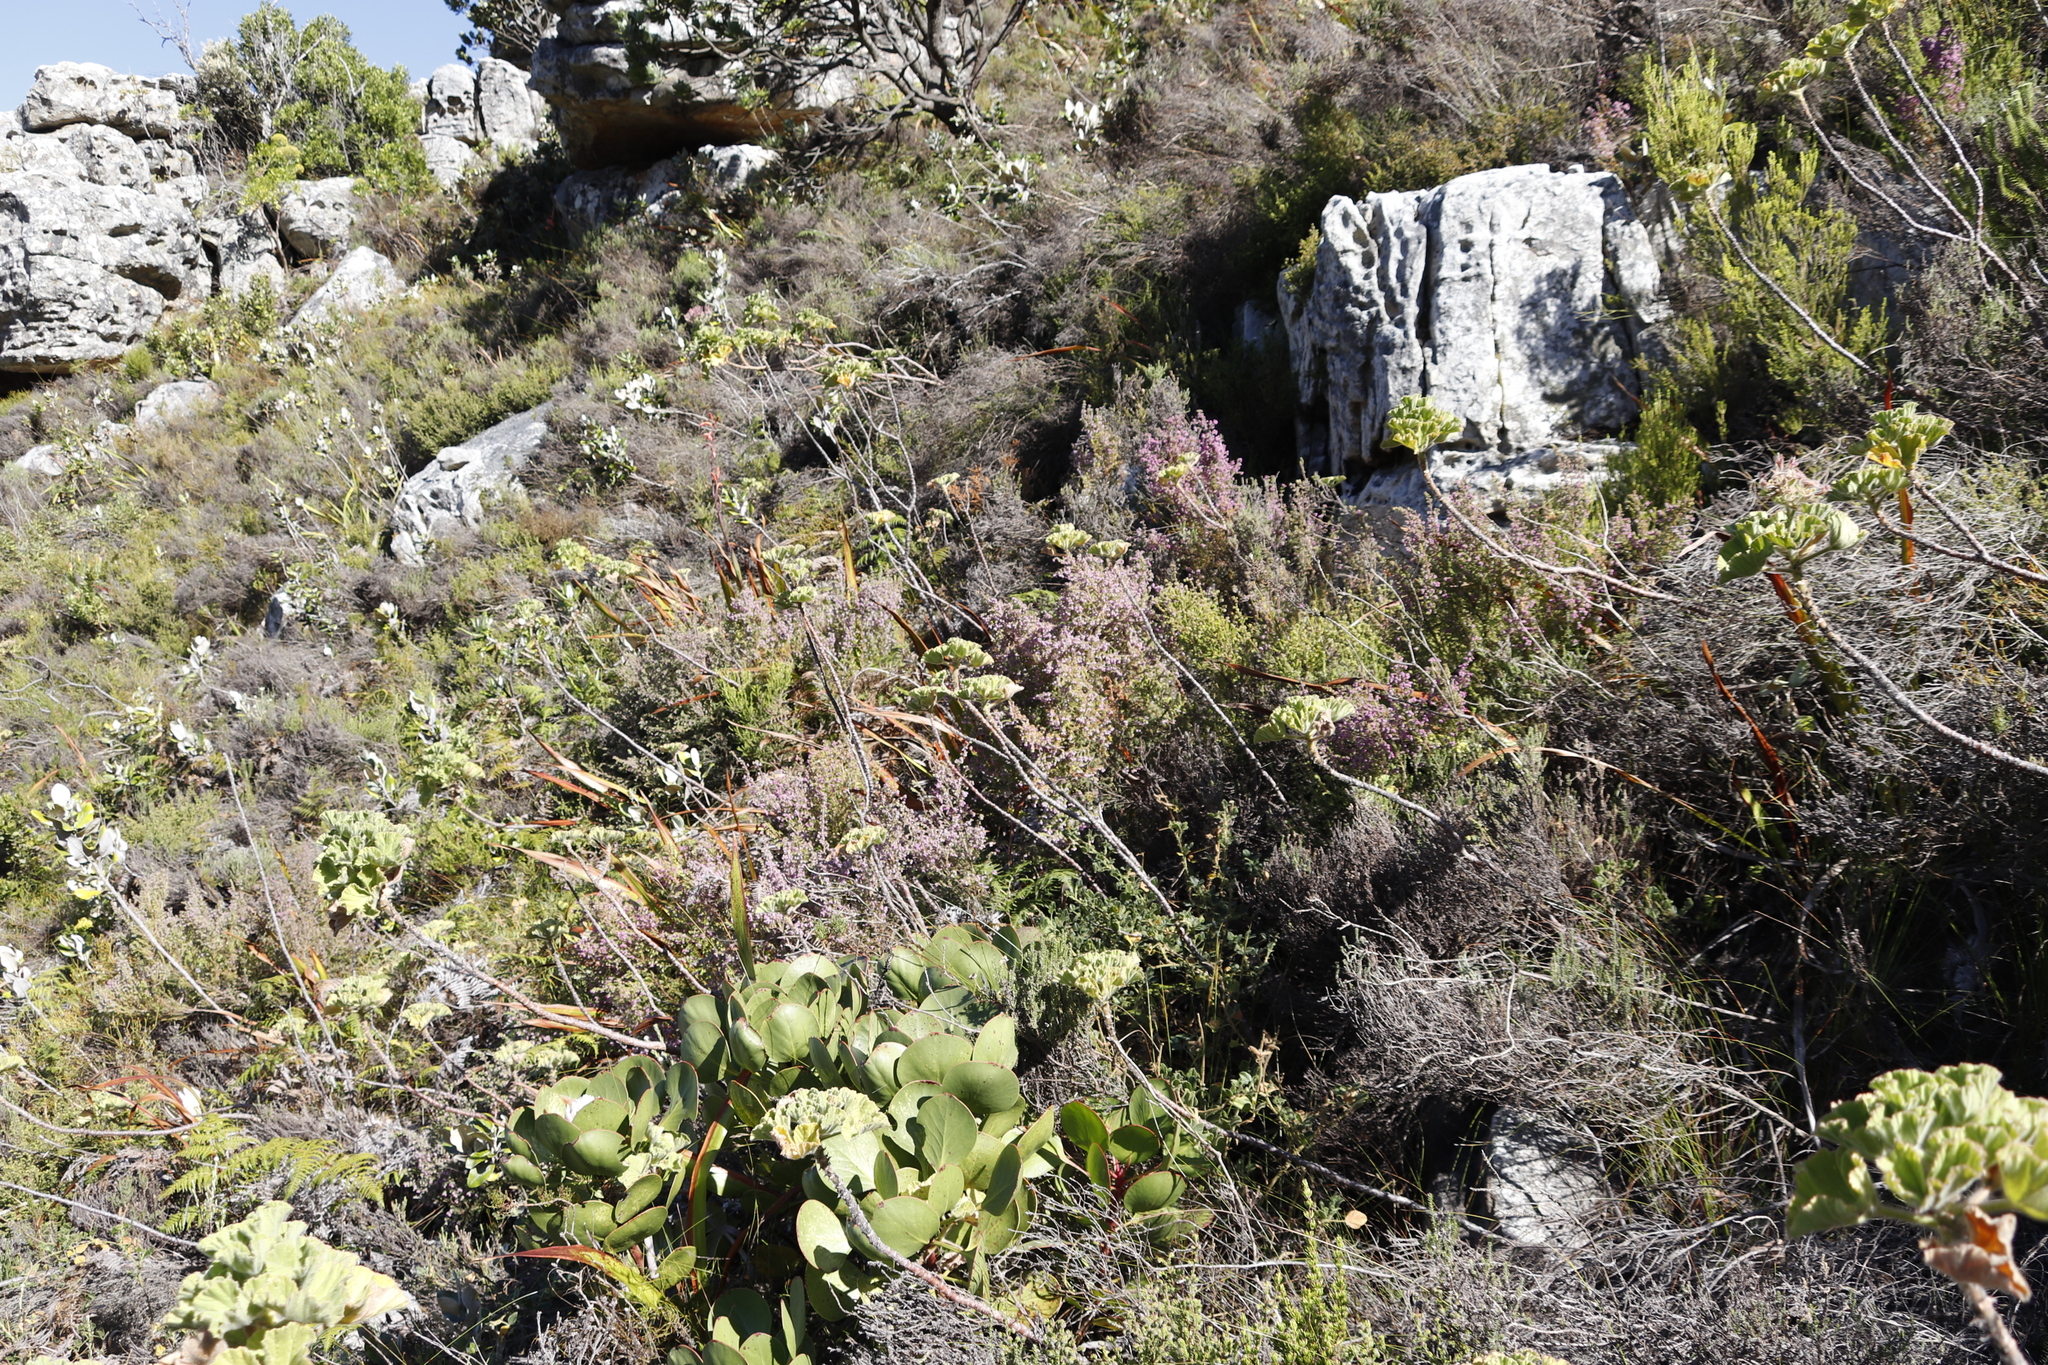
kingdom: Plantae
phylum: Tracheophyta
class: Magnoliopsida
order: Proteales
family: Proteaceae
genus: Protea
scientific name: Protea cynaroides
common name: King protea
